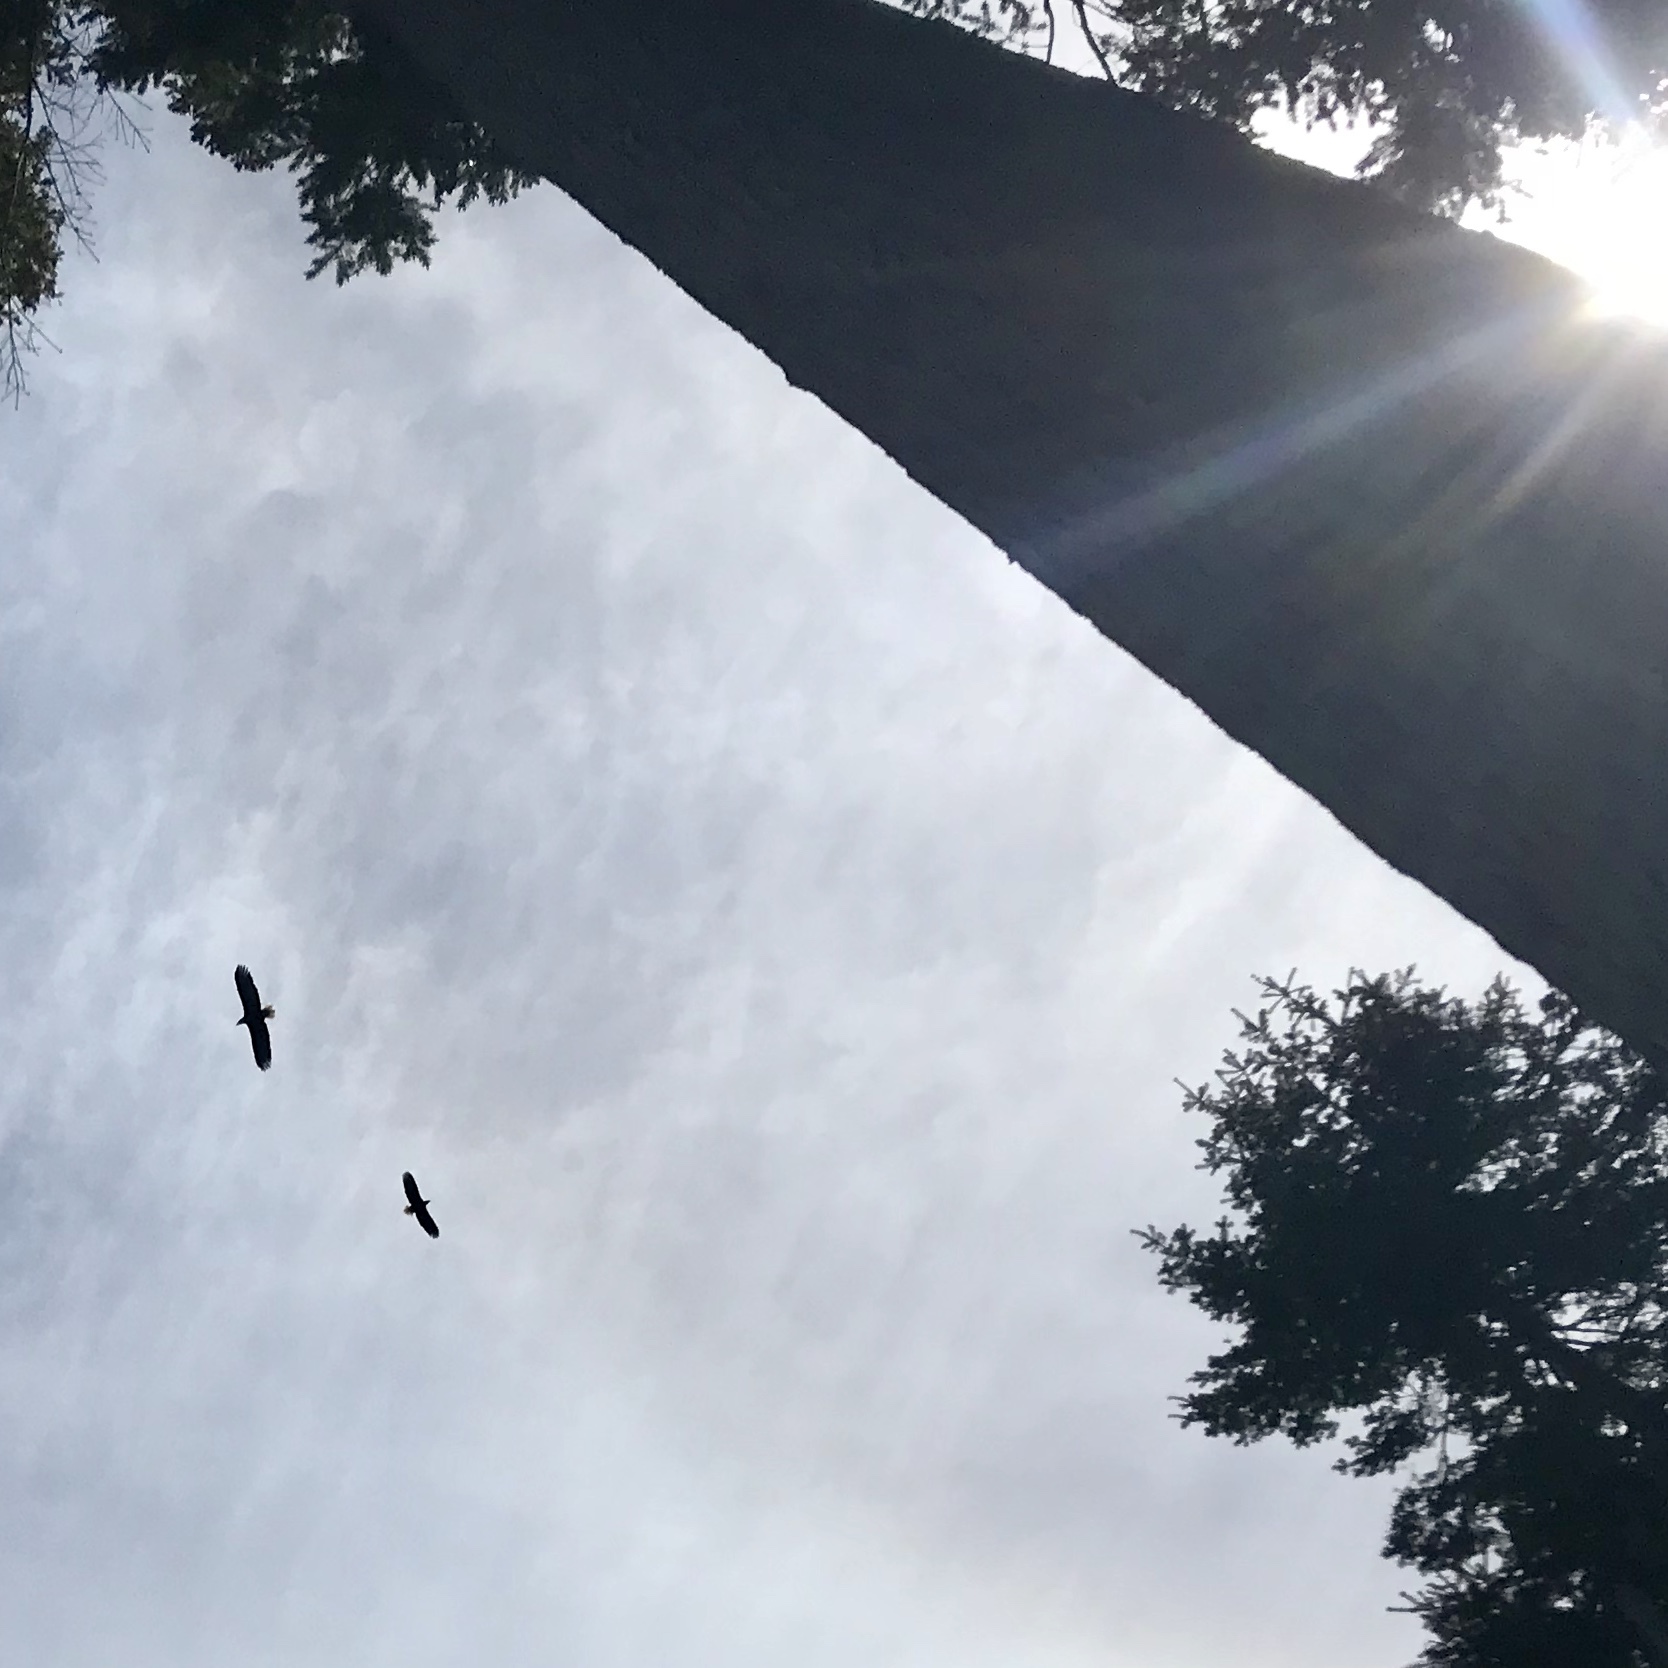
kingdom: Animalia
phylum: Chordata
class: Aves
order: Accipitriformes
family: Accipitridae
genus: Haliaeetus
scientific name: Haliaeetus leucocephalus
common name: Bald eagle
